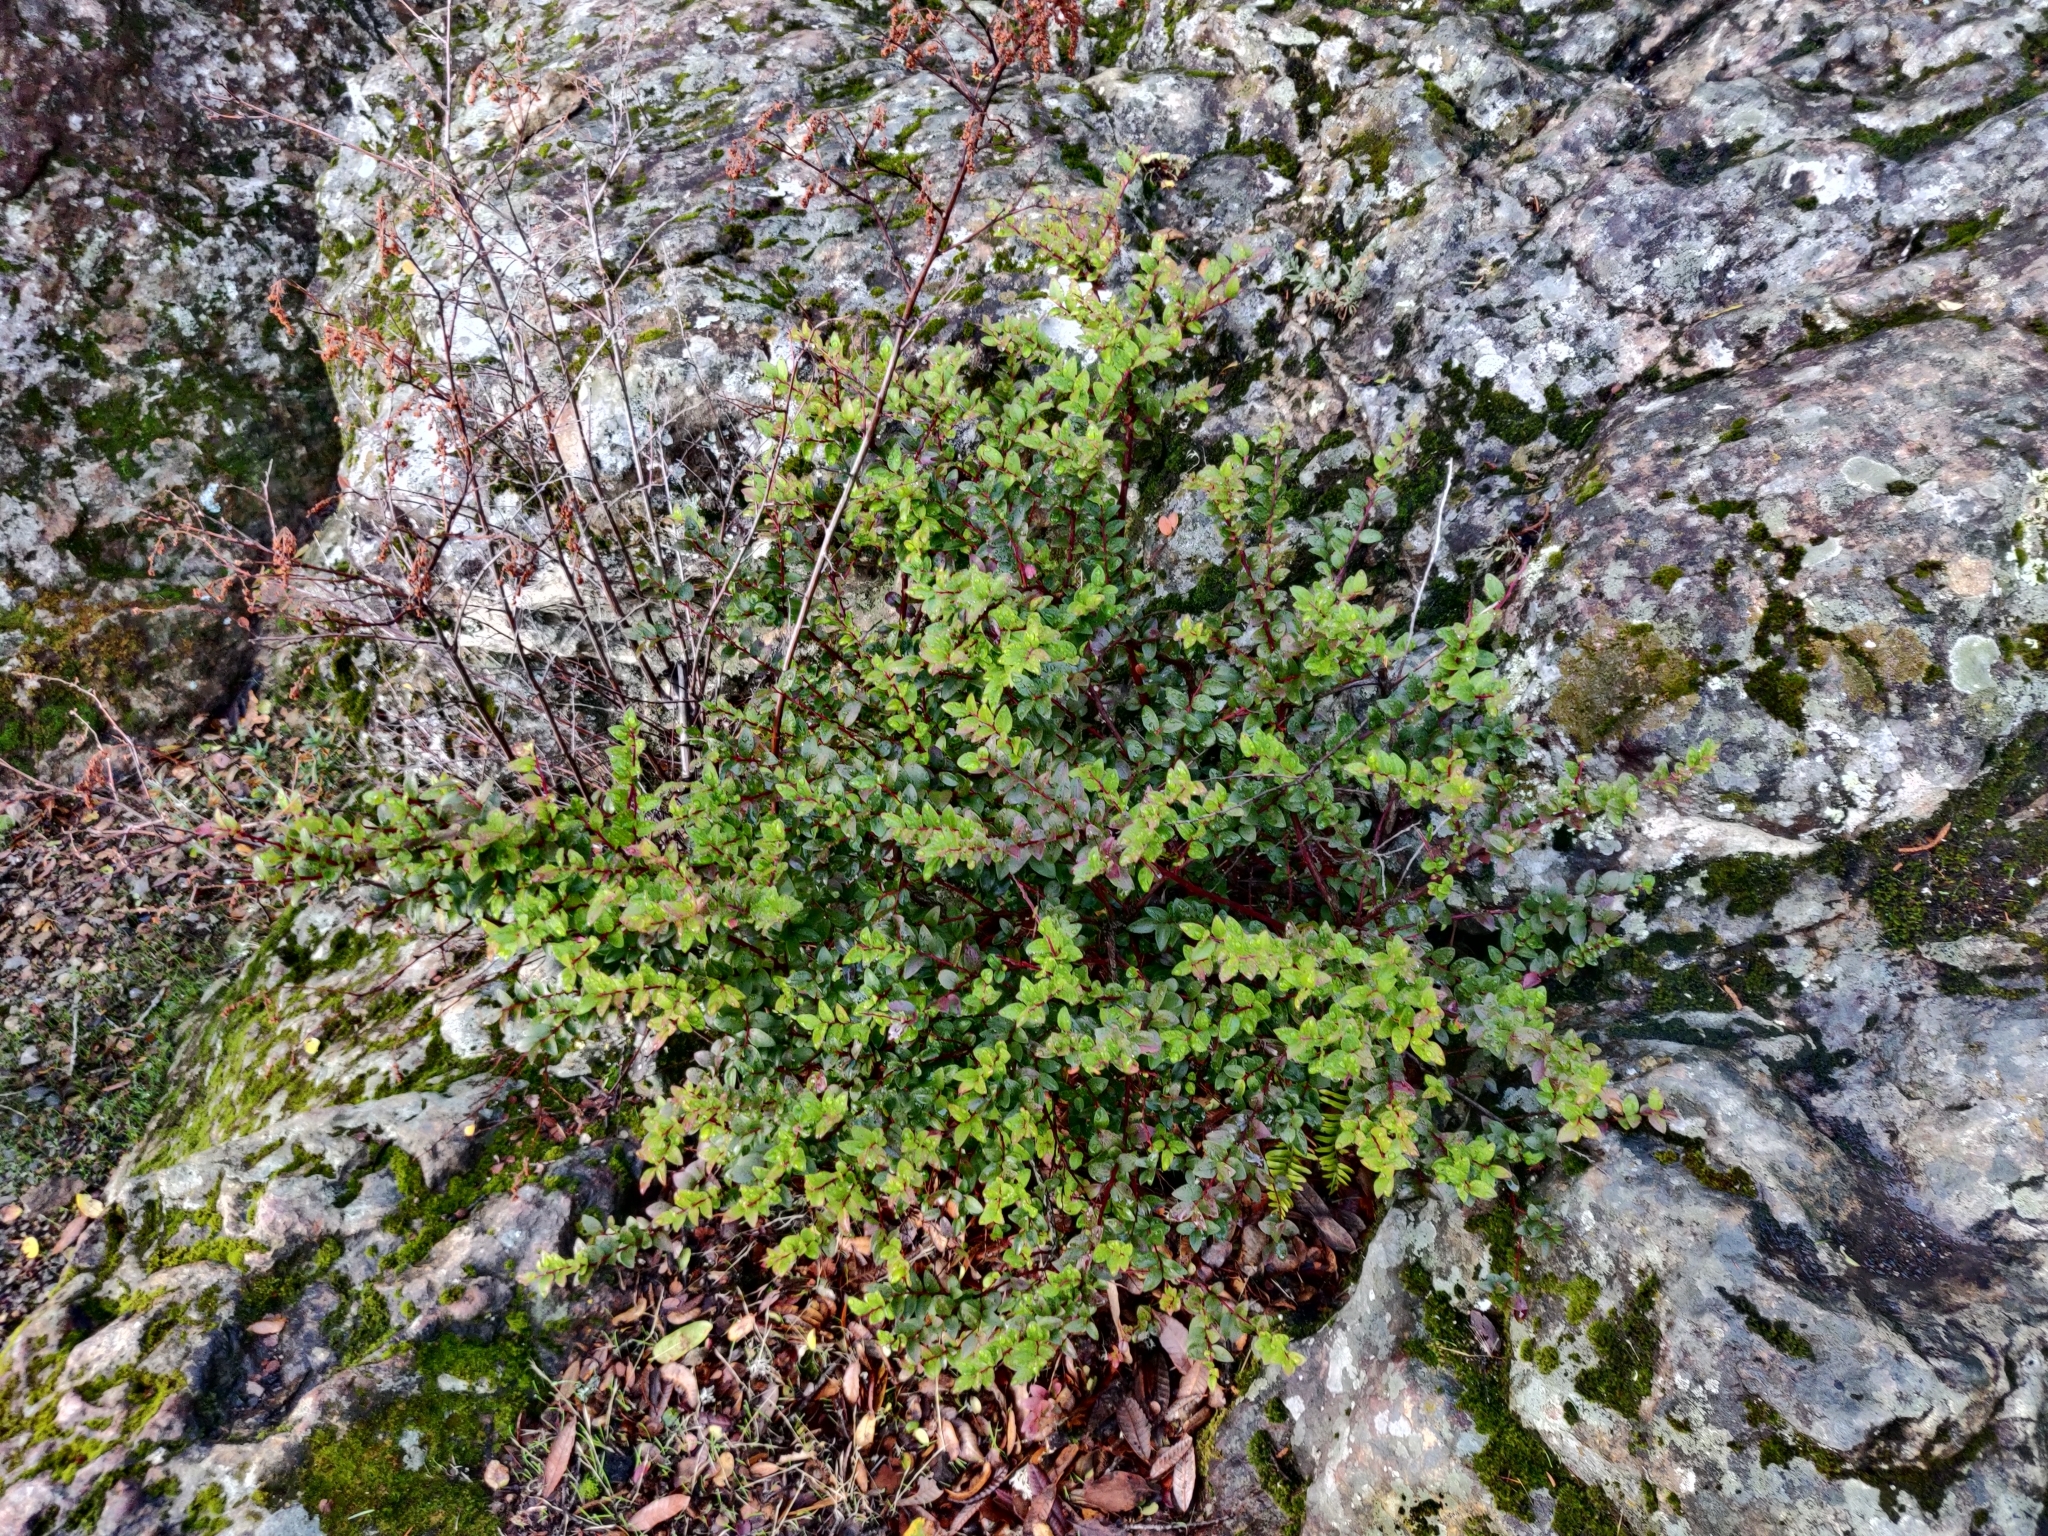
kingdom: Plantae
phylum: Tracheophyta
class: Magnoliopsida
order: Ericales
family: Ericaceae
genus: Vaccinium
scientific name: Vaccinium ovatum
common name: California-huckleberry
